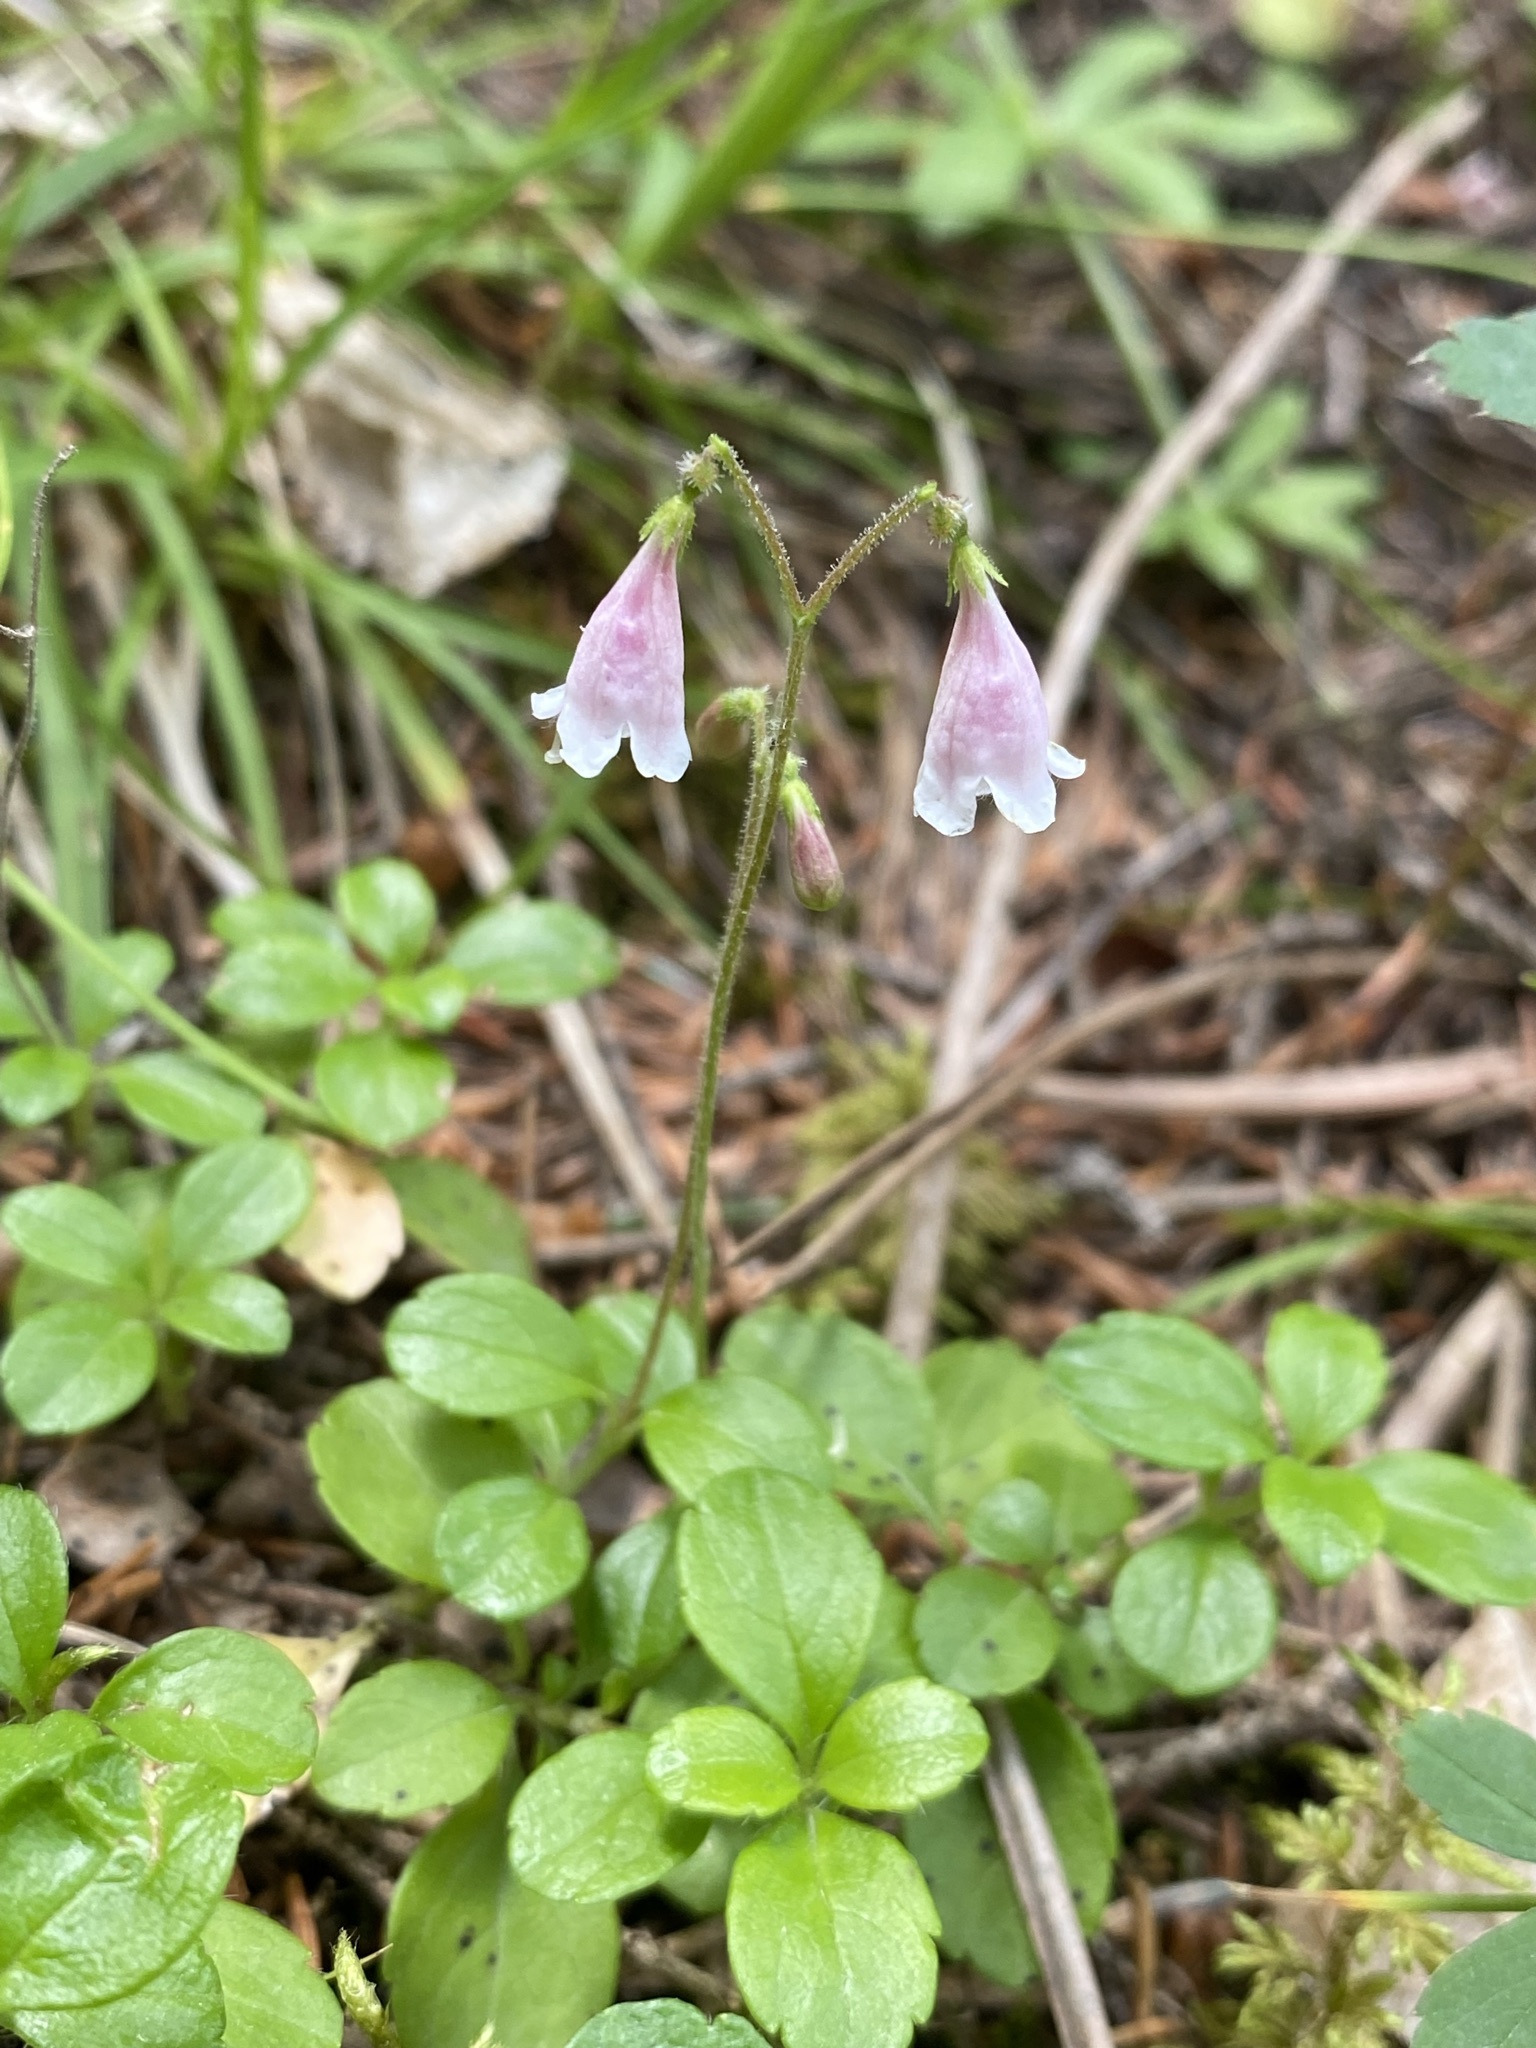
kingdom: Plantae
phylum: Tracheophyta
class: Magnoliopsida
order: Dipsacales
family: Caprifoliaceae
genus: Linnaea
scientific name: Linnaea borealis
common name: Twinflower
